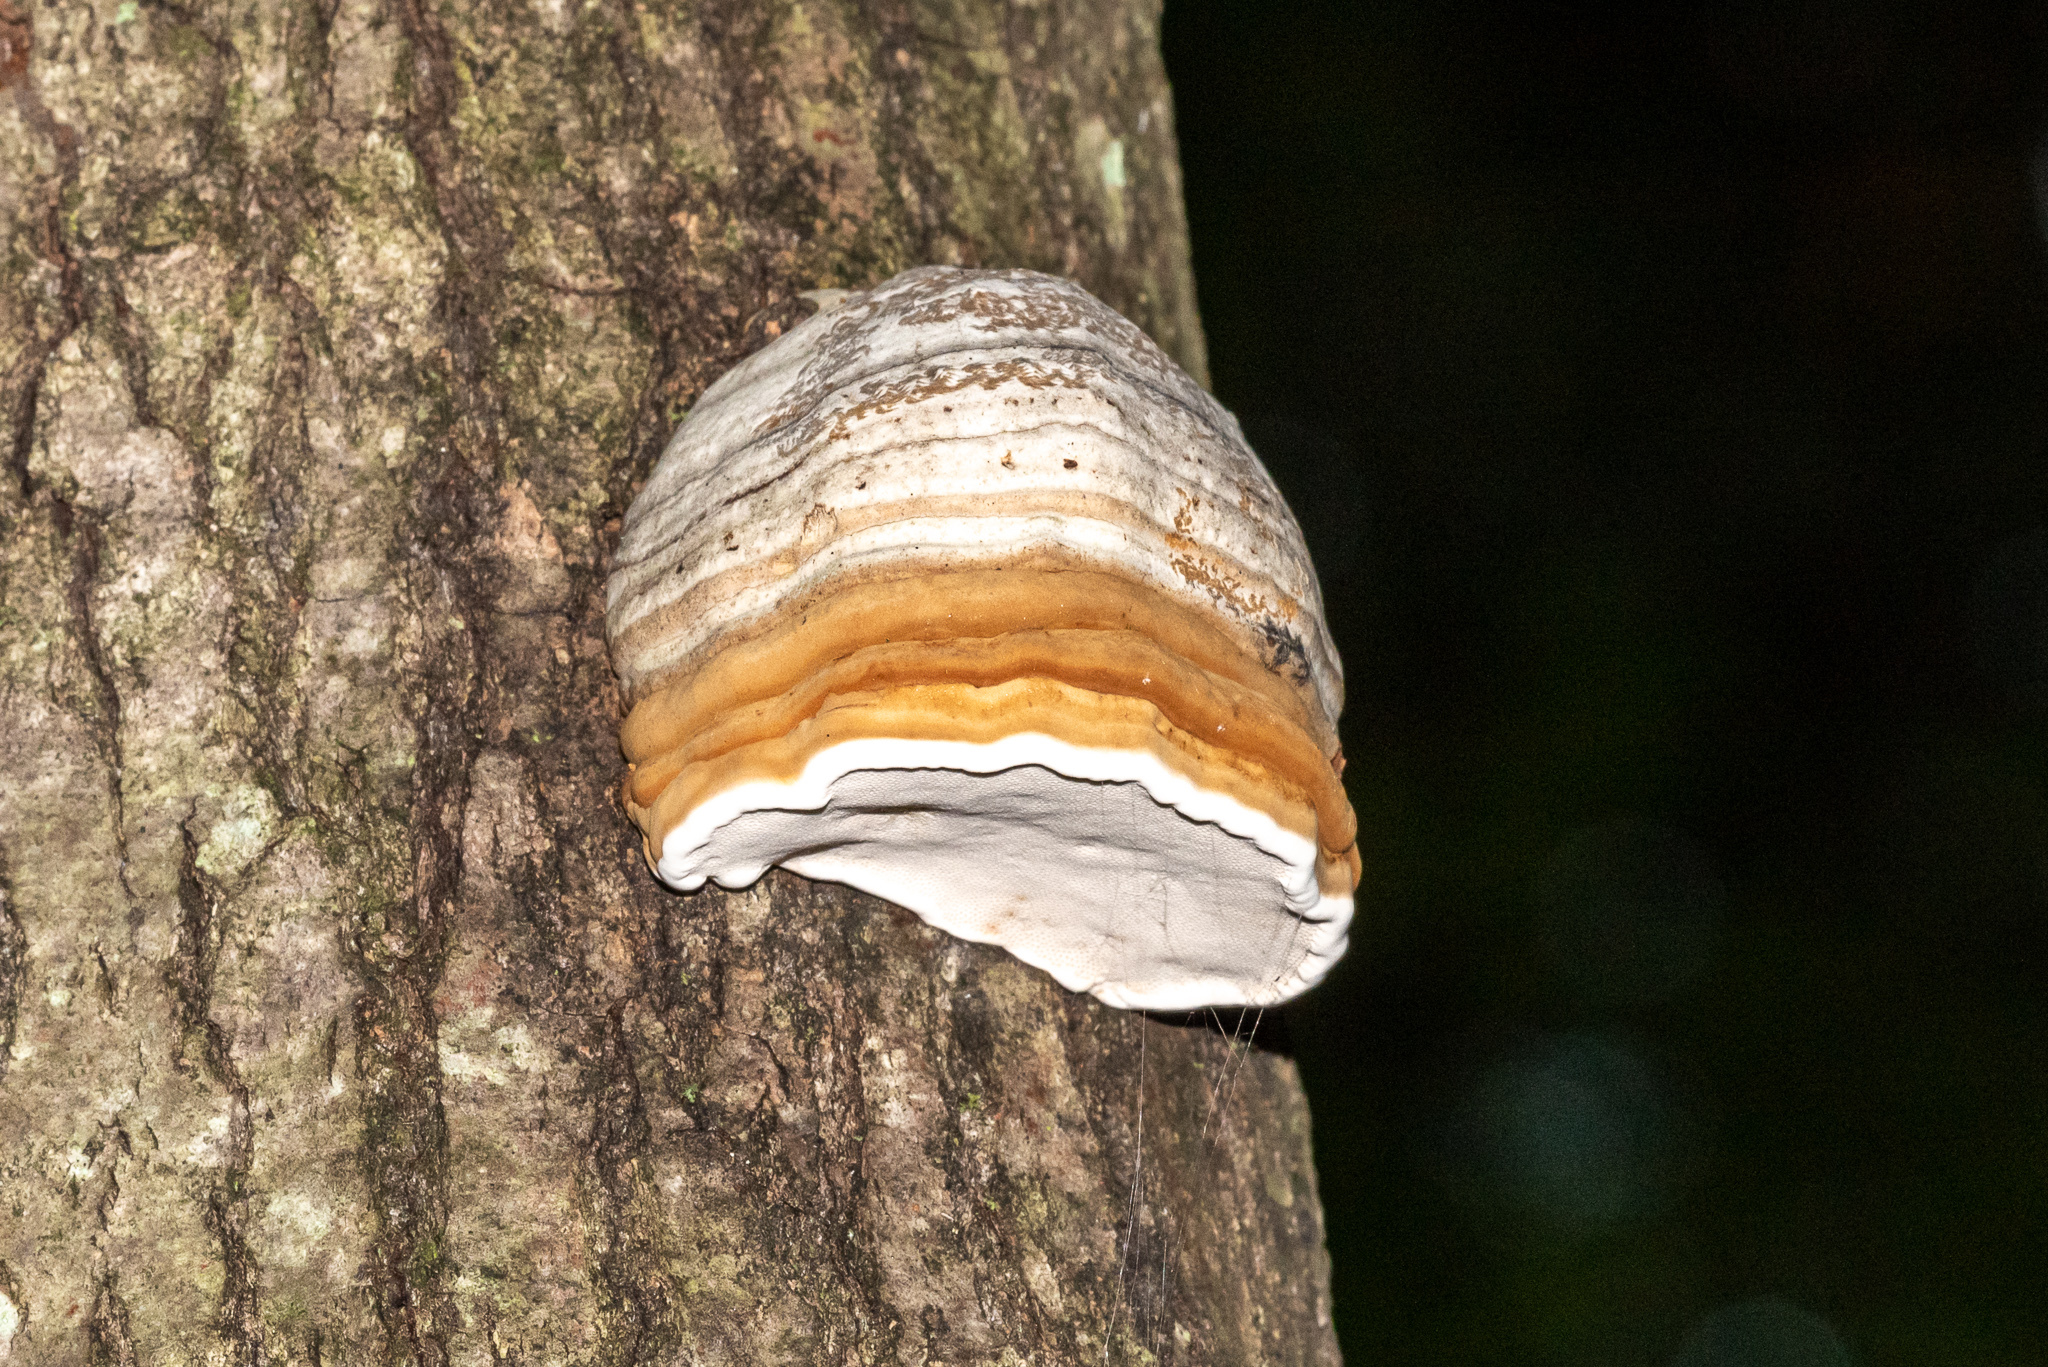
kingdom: Fungi
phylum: Basidiomycota
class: Agaricomycetes
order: Polyporales
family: Polyporaceae
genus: Fomes
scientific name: Fomes fomentarius
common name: Hoof fungus
